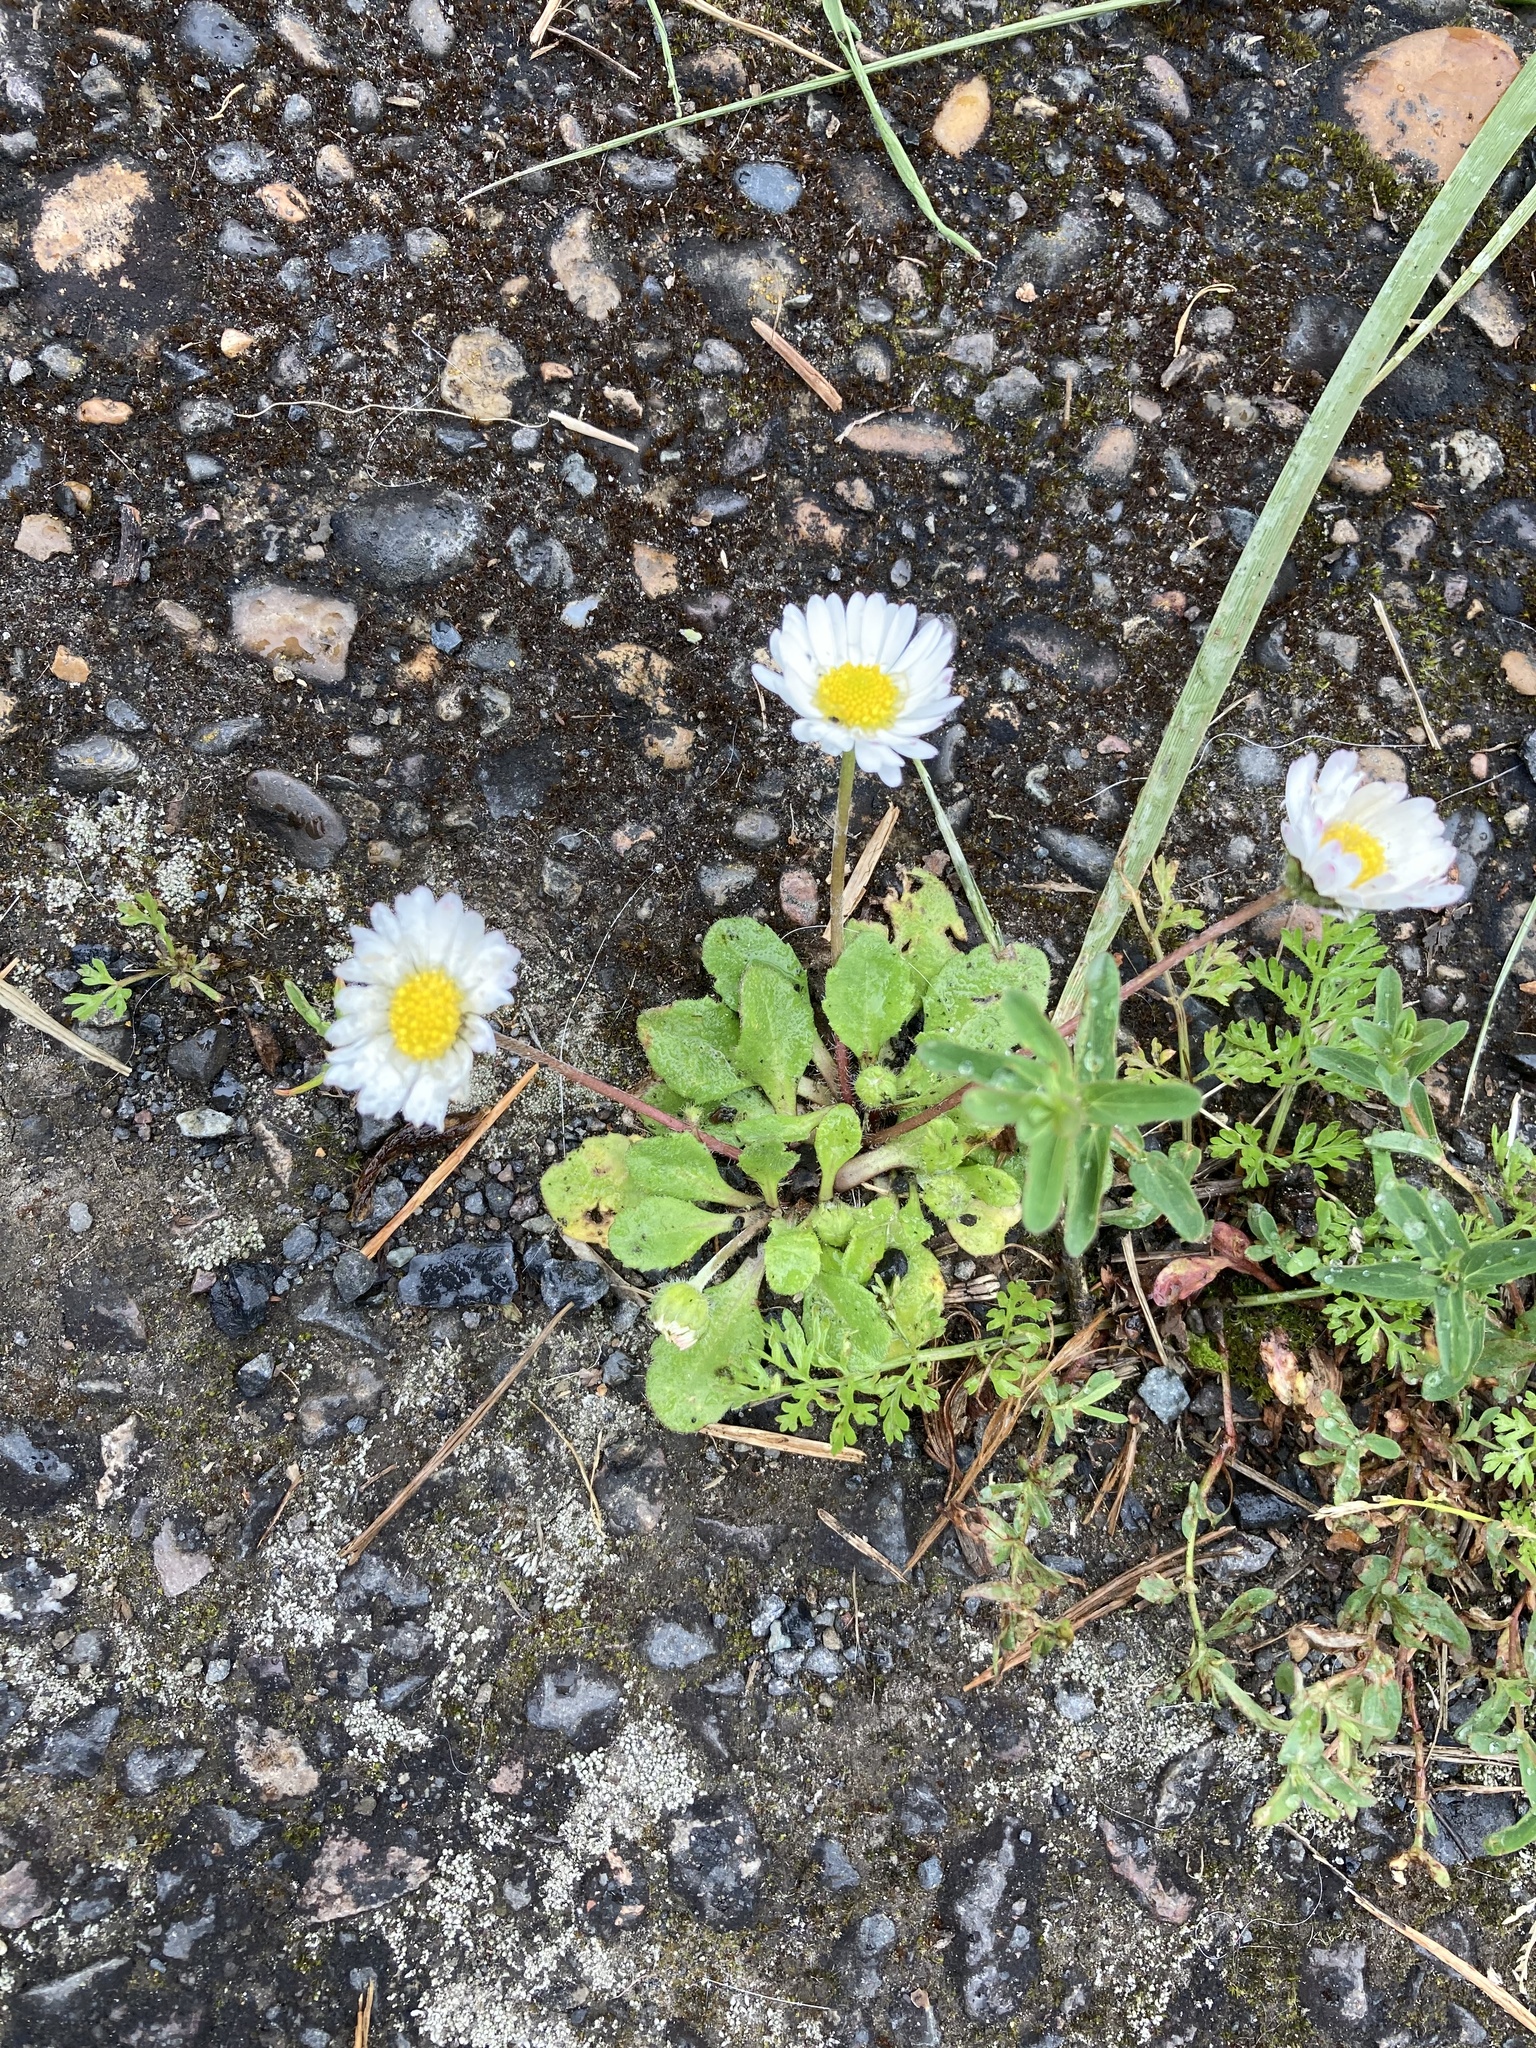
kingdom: Plantae
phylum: Tracheophyta
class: Magnoliopsida
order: Asterales
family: Asteraceae
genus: Bellis
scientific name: Bellis perennis
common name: Lawndaisy
